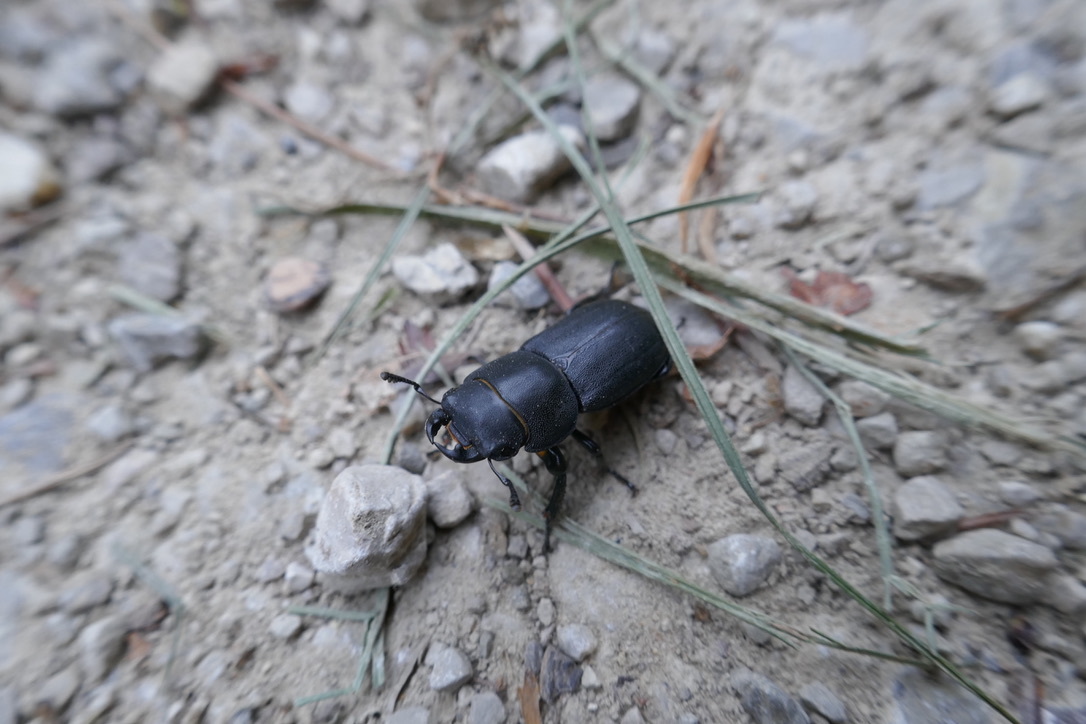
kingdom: Animalia
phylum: Arthropoda
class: Insecta
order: Coleoptera
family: Lucanidae
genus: Dorcus
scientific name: Dorcus parallelipipedus
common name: Lesser stag beetle
